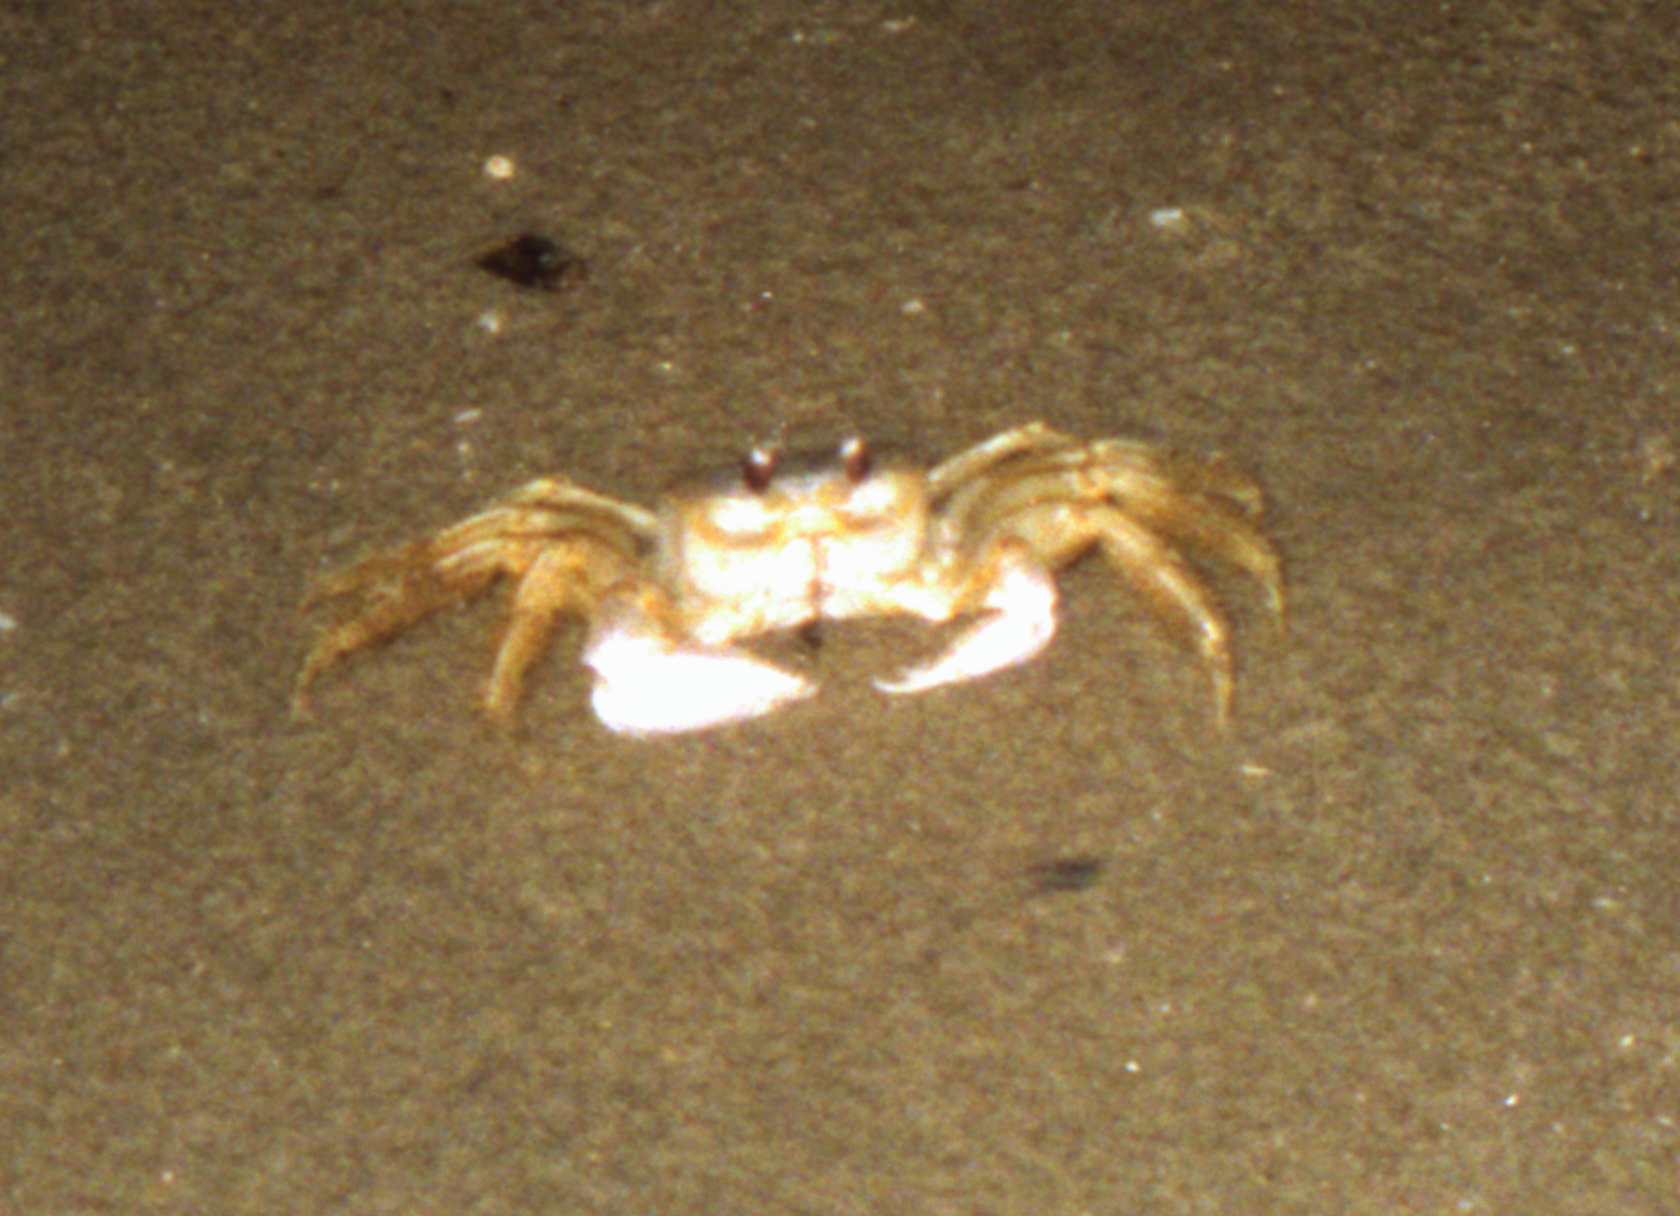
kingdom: Animalia
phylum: Arthropoda
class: Malacostraca
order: Decapoda
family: Ocypodidae
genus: Ocypode
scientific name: Ocypode quadrata
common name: Ghost crab
